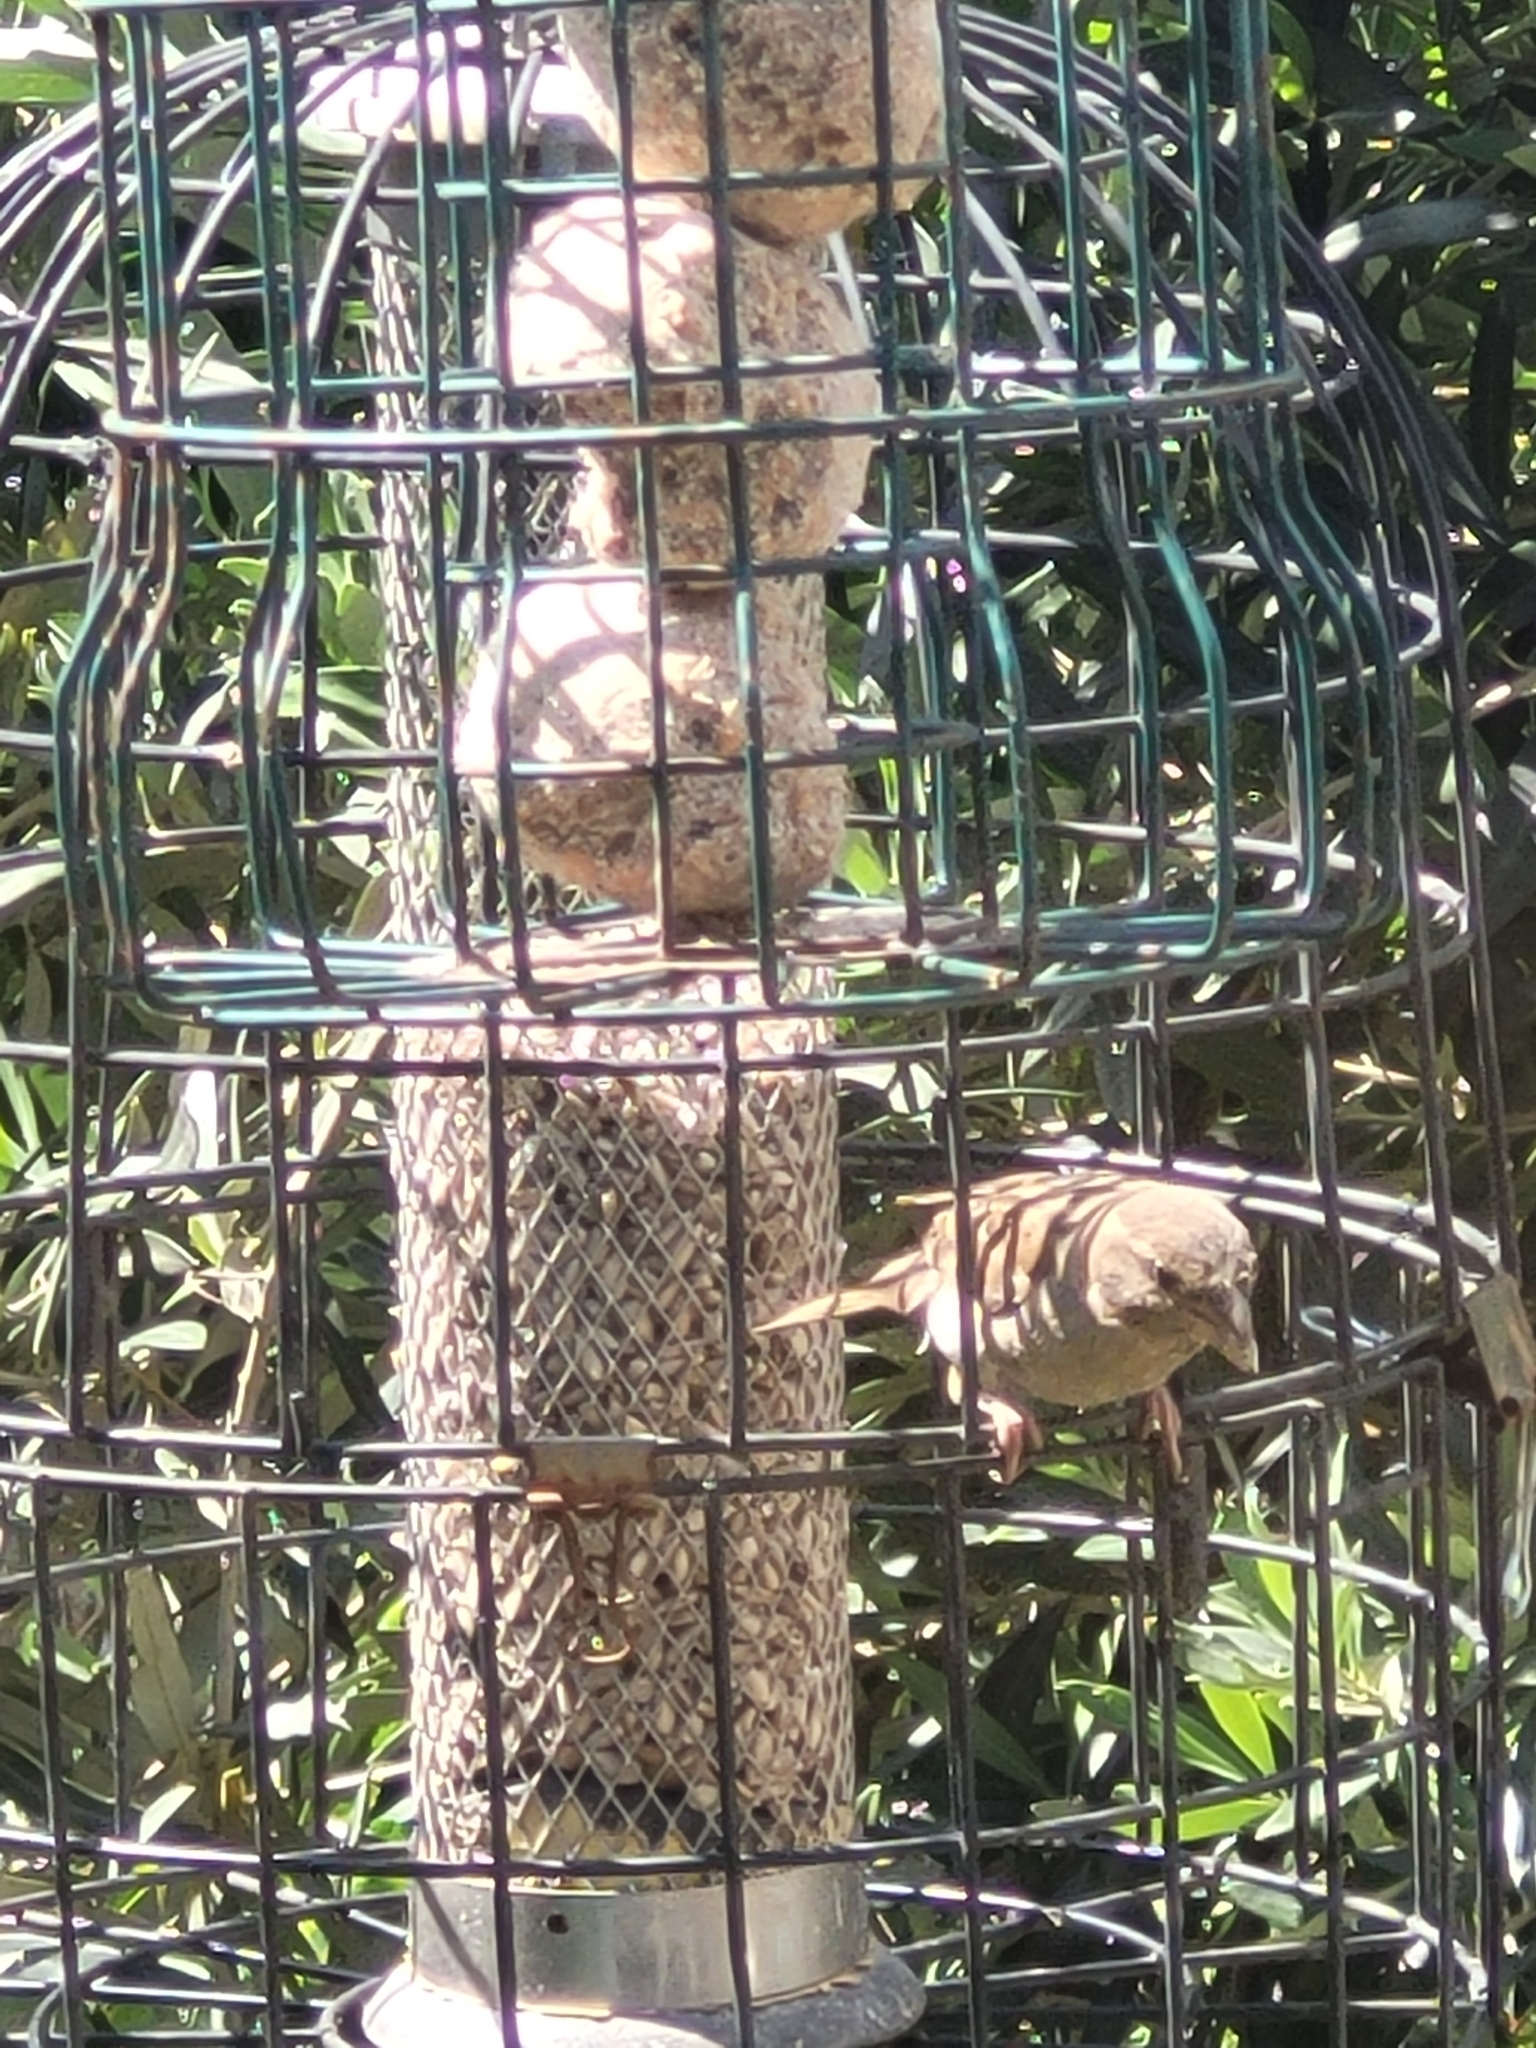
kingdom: Animalia
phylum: Chordata
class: Aves
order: Passeriformes
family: Passeridae
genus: Passer
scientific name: Passer domesticus
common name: House sparrow
